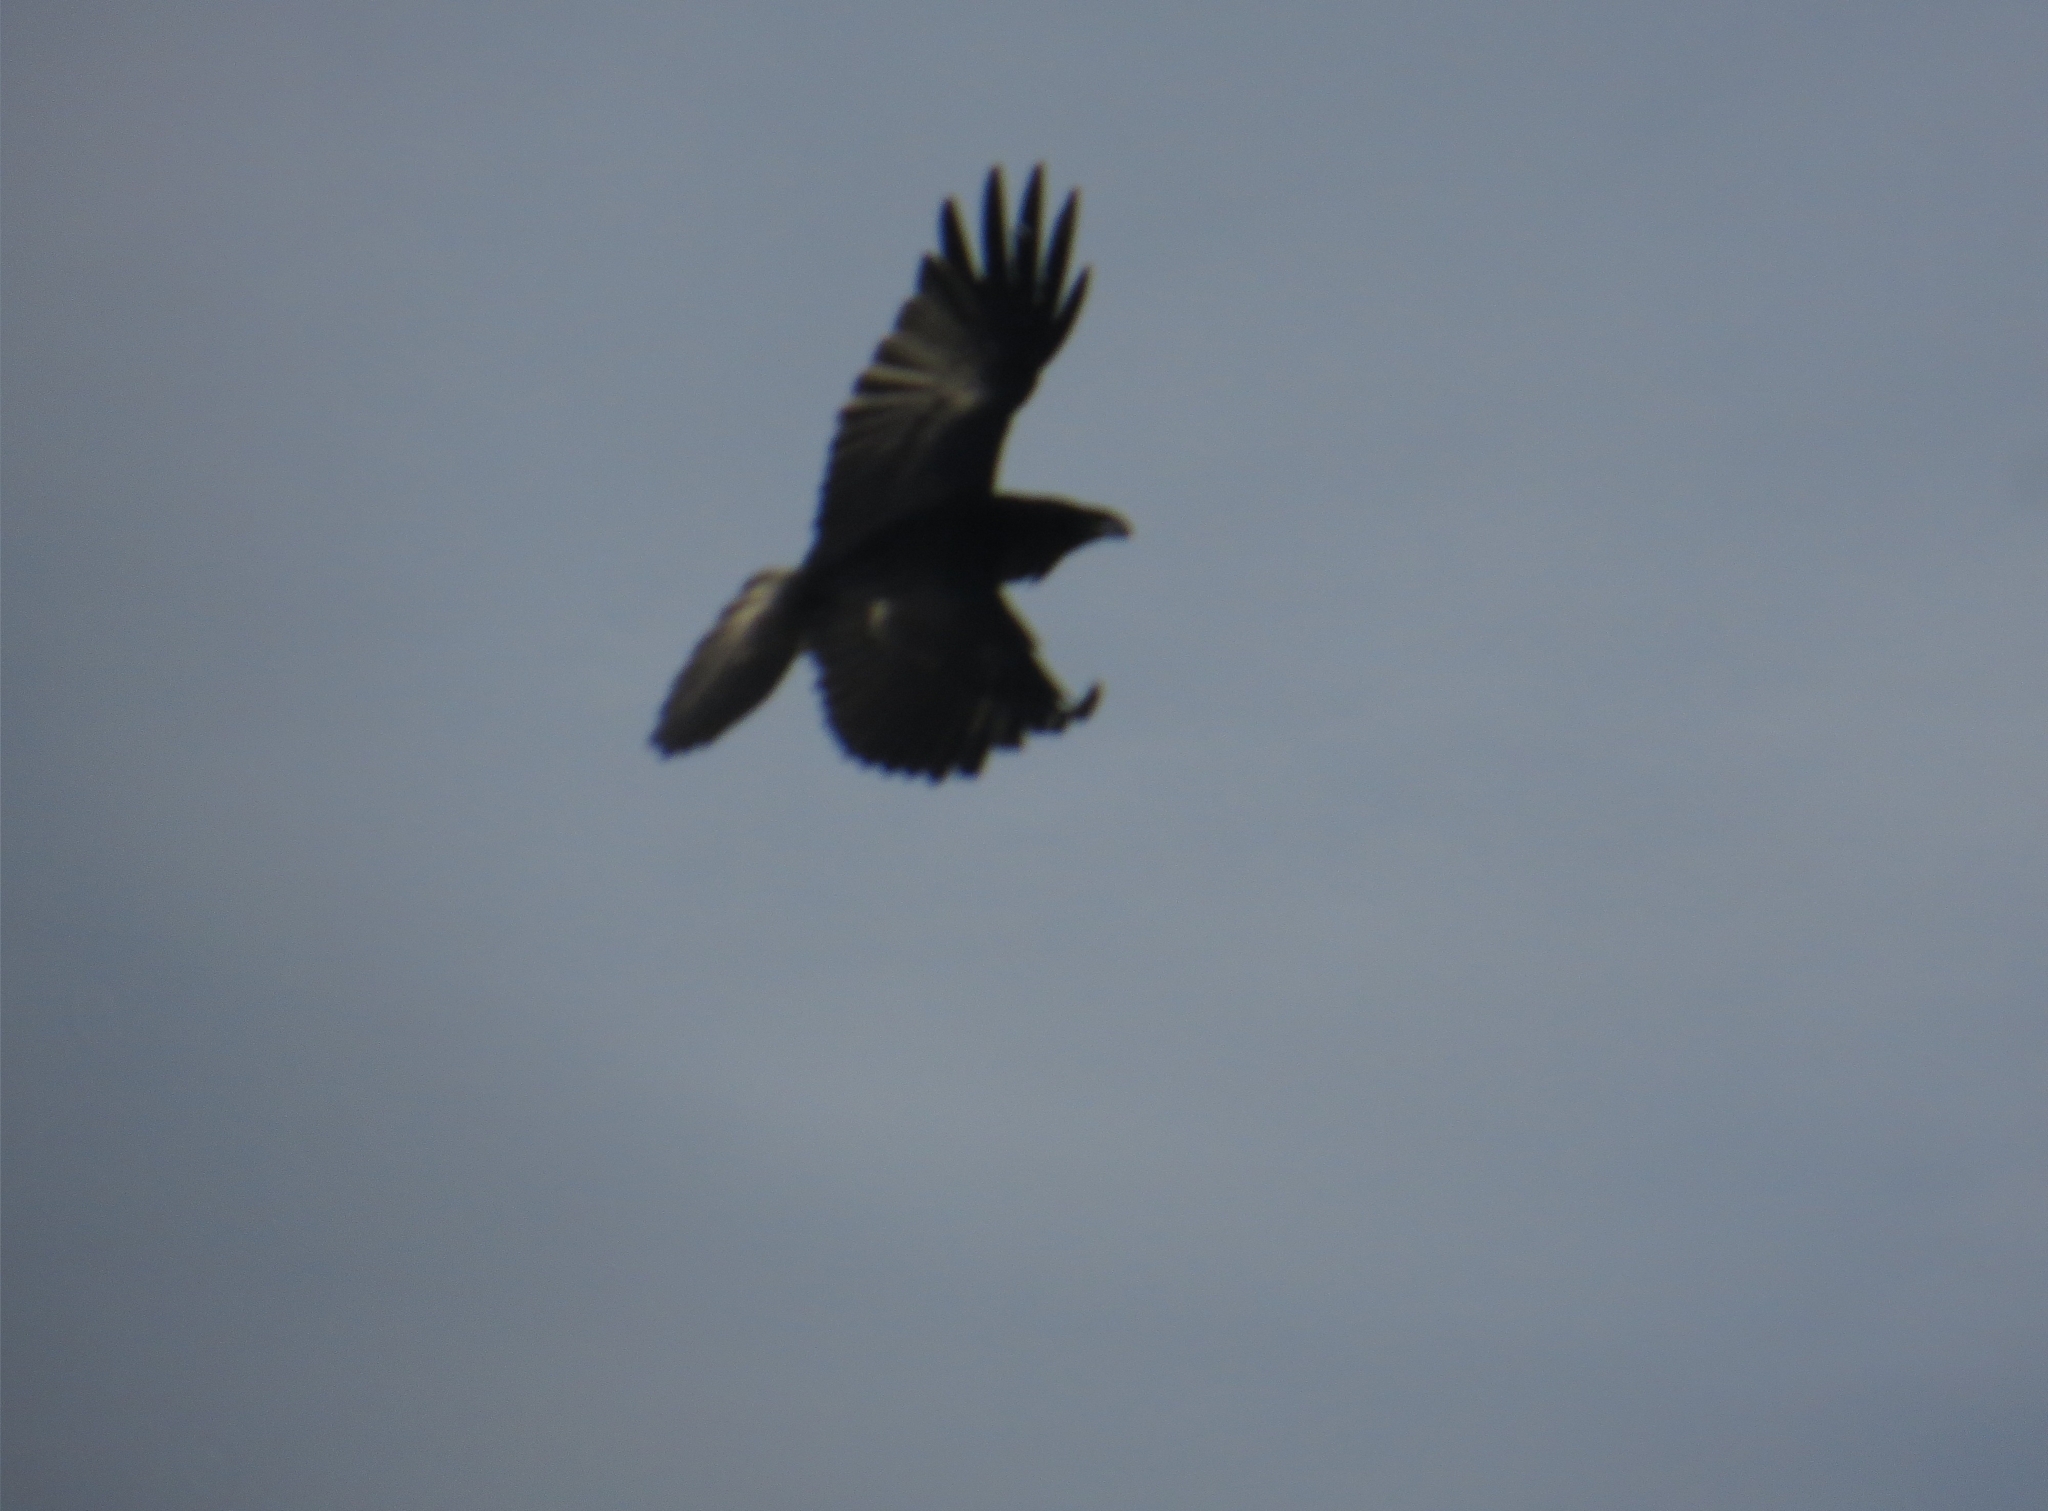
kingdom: Animalia
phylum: Chordata
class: Aves
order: Passeriformes
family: Corvidae
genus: Corvus
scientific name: Corvus corax
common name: Common raven
